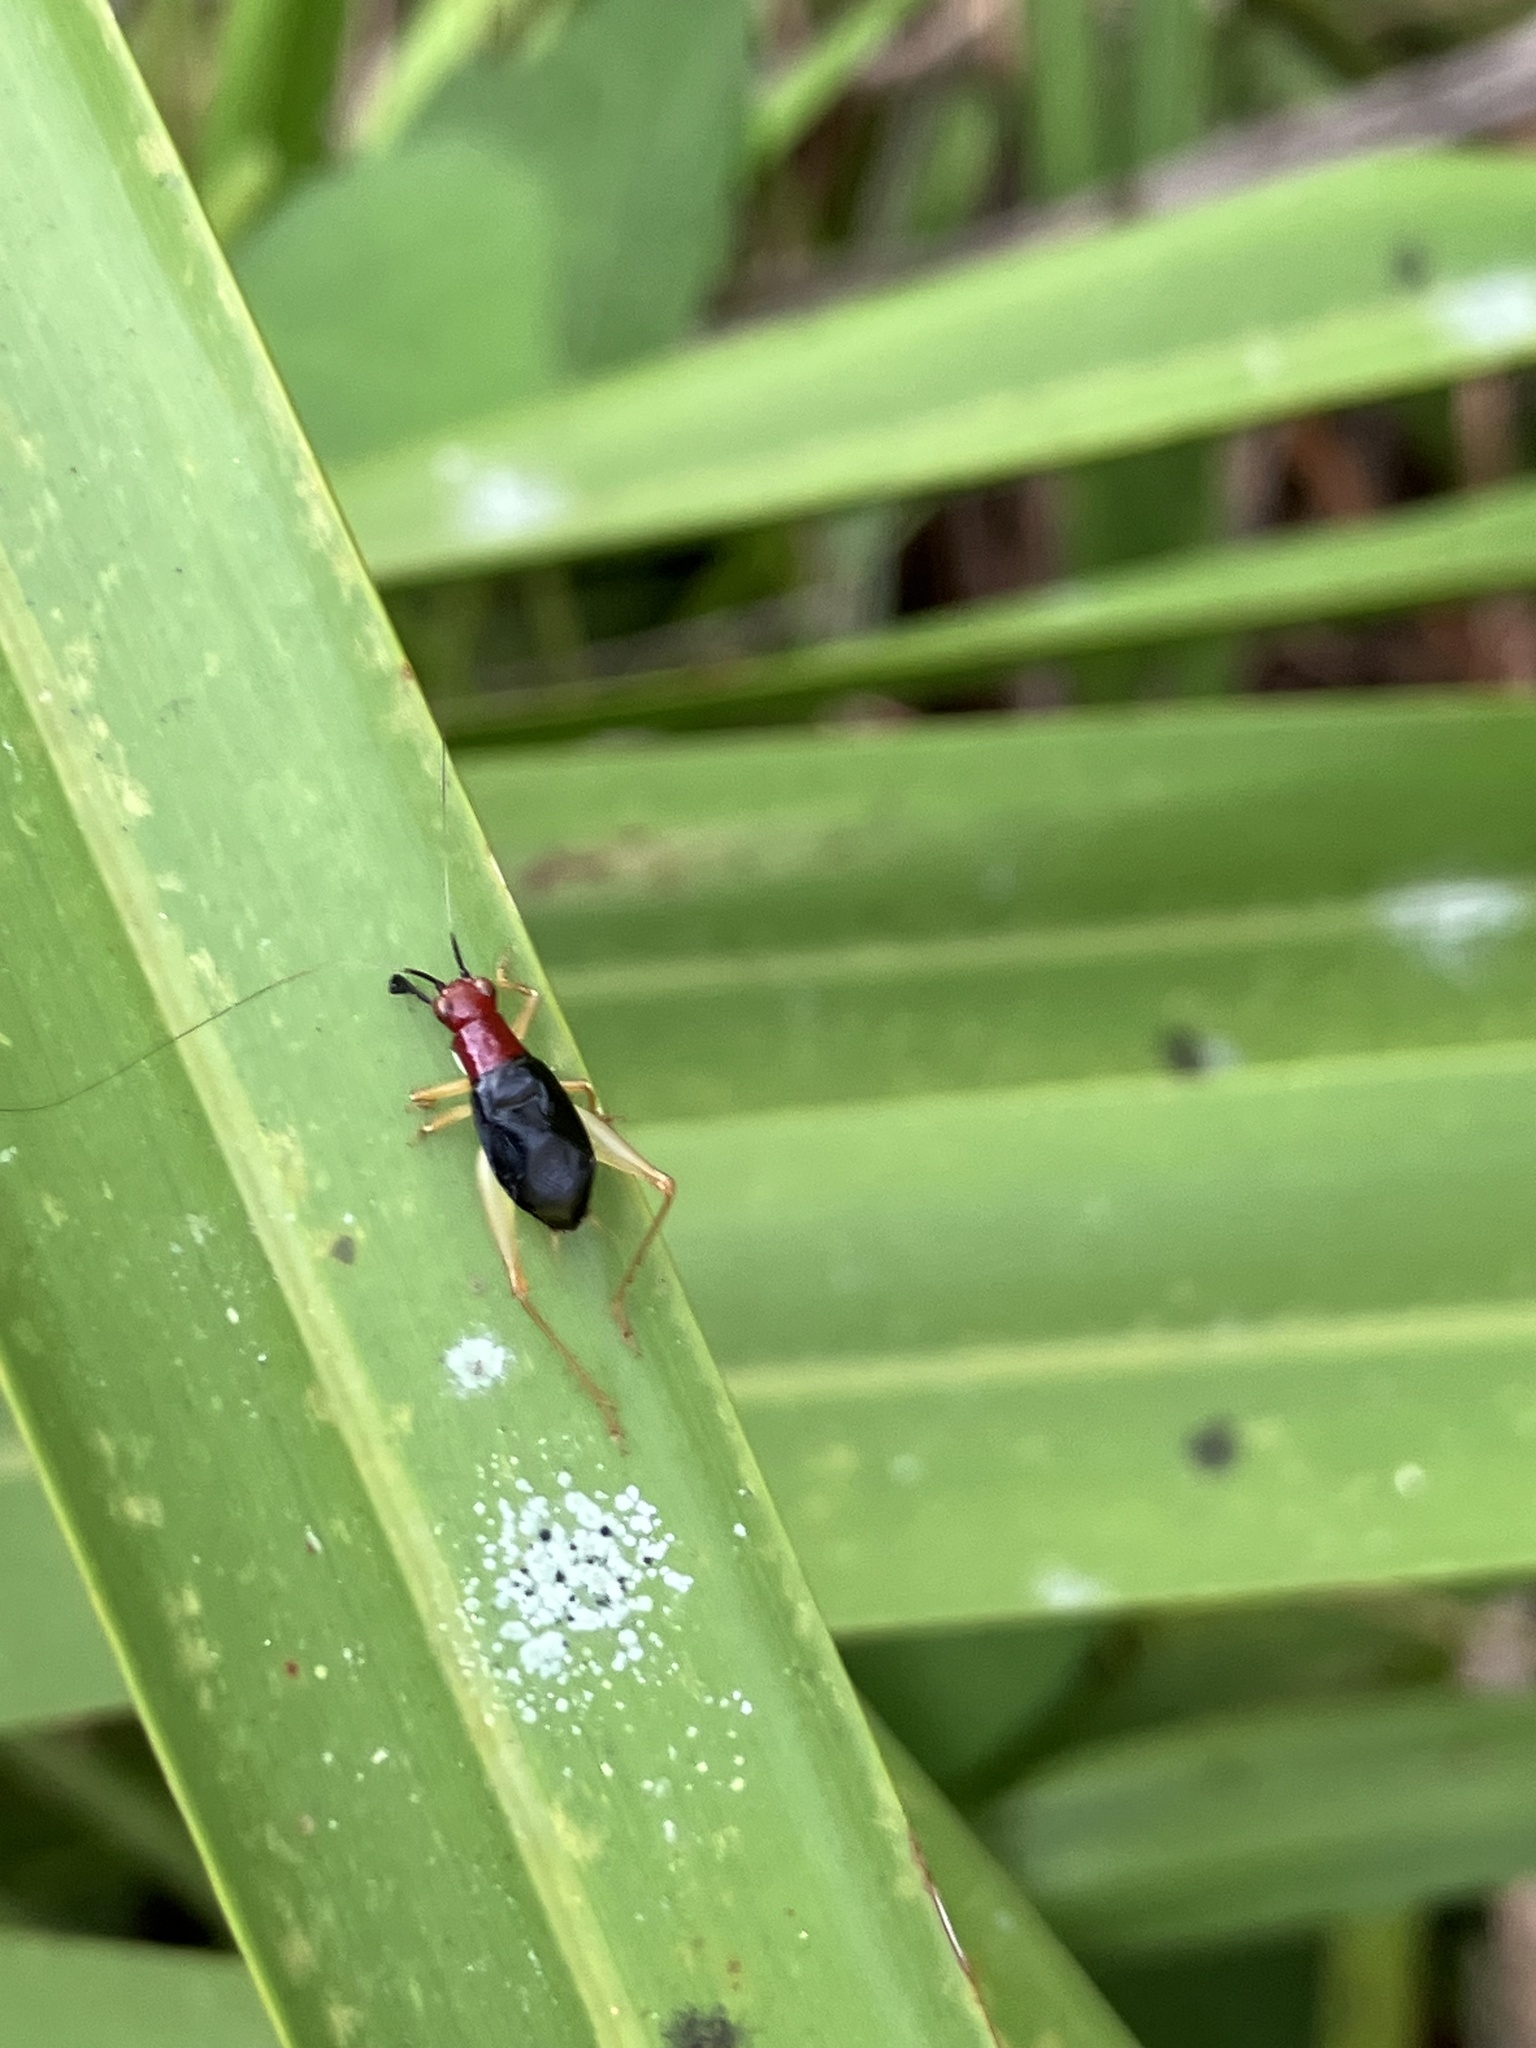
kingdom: Animalia
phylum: Arthropoda
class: Insecta
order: Orthoptera
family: Trigonidiidae
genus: Phyllopalpus
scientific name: Phyllopalpus pulchellus
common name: Handsome trig
